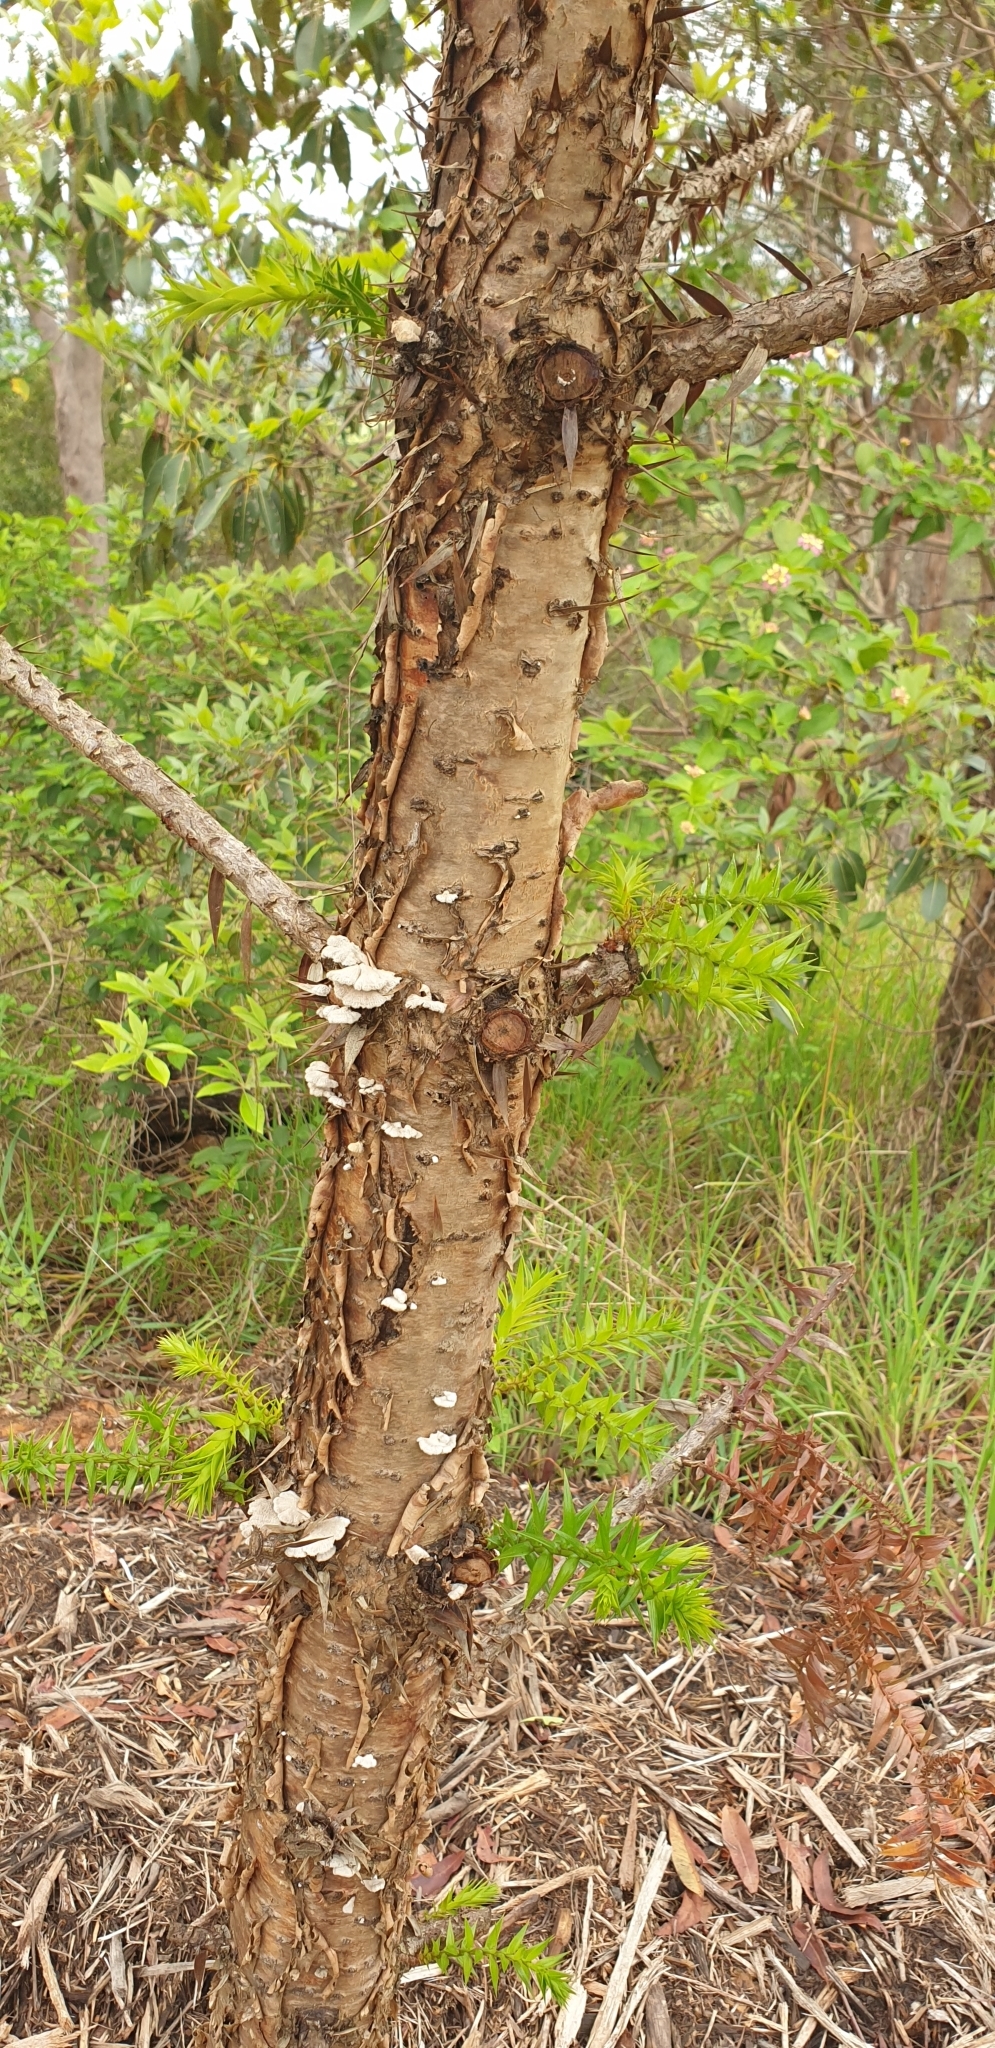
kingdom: Fungi
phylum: Basidiomycota
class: Agaricomycetes
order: Agaricales
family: Schizophyllaceae
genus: Schizophyllum
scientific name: Schizophyllum commune
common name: Common porecrust
